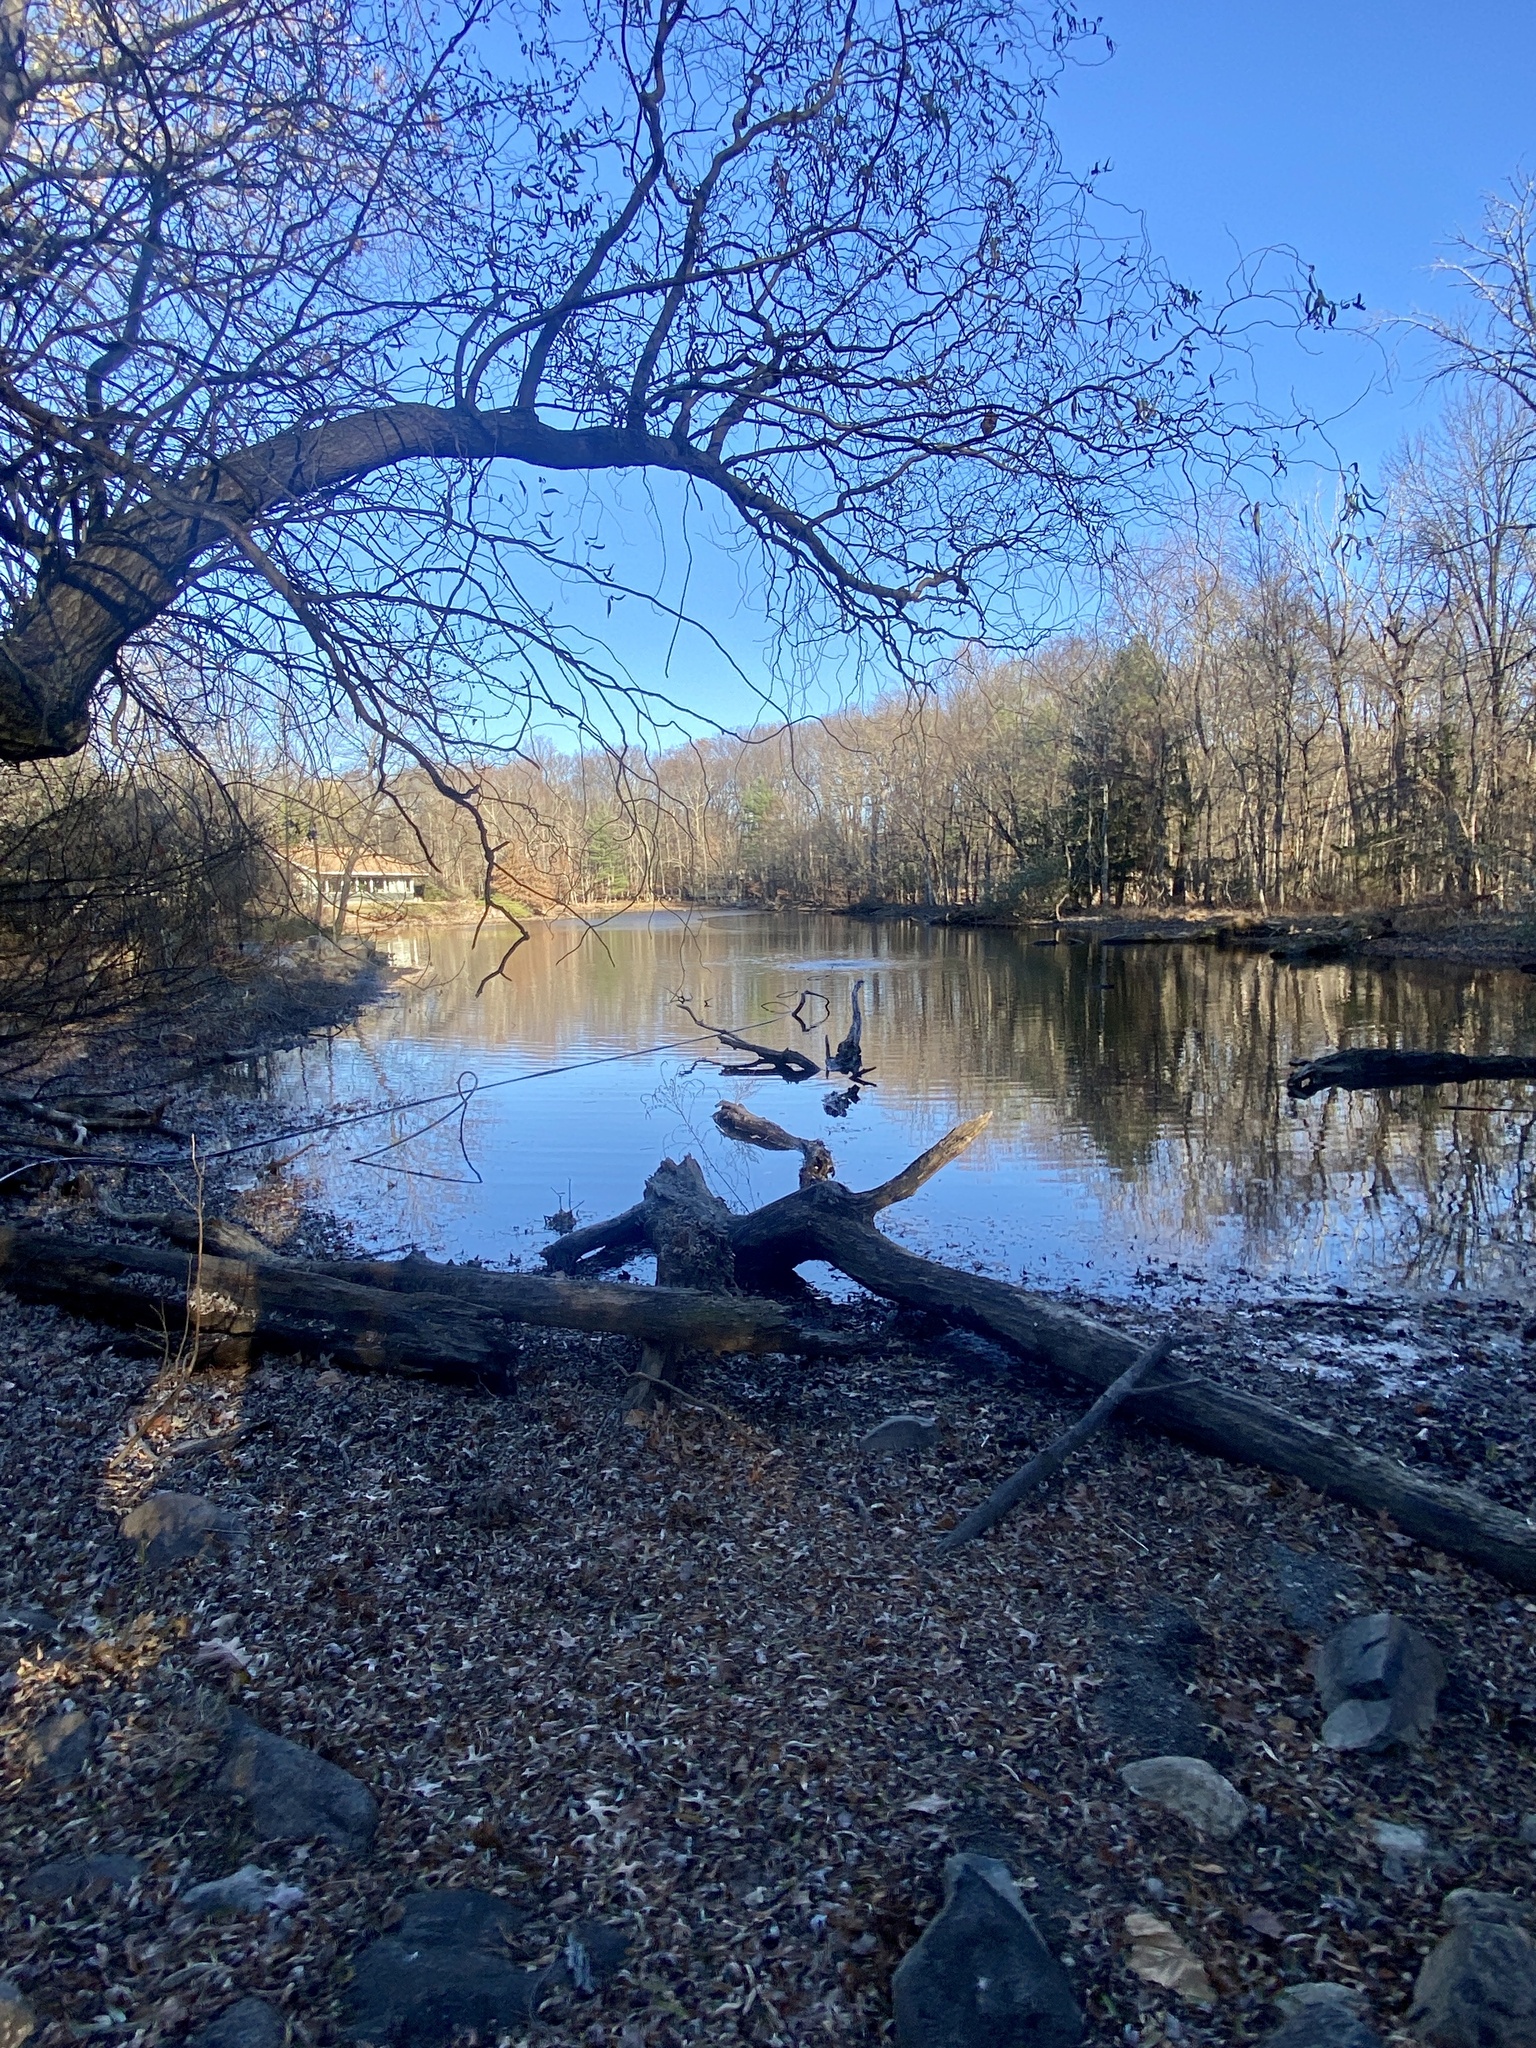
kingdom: Plantae
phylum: Tracheophyta
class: Magnoliopsida
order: Celastrales
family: Celastraceae
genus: Euonymus
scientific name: Euonymus alatus
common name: Winged euonymus
